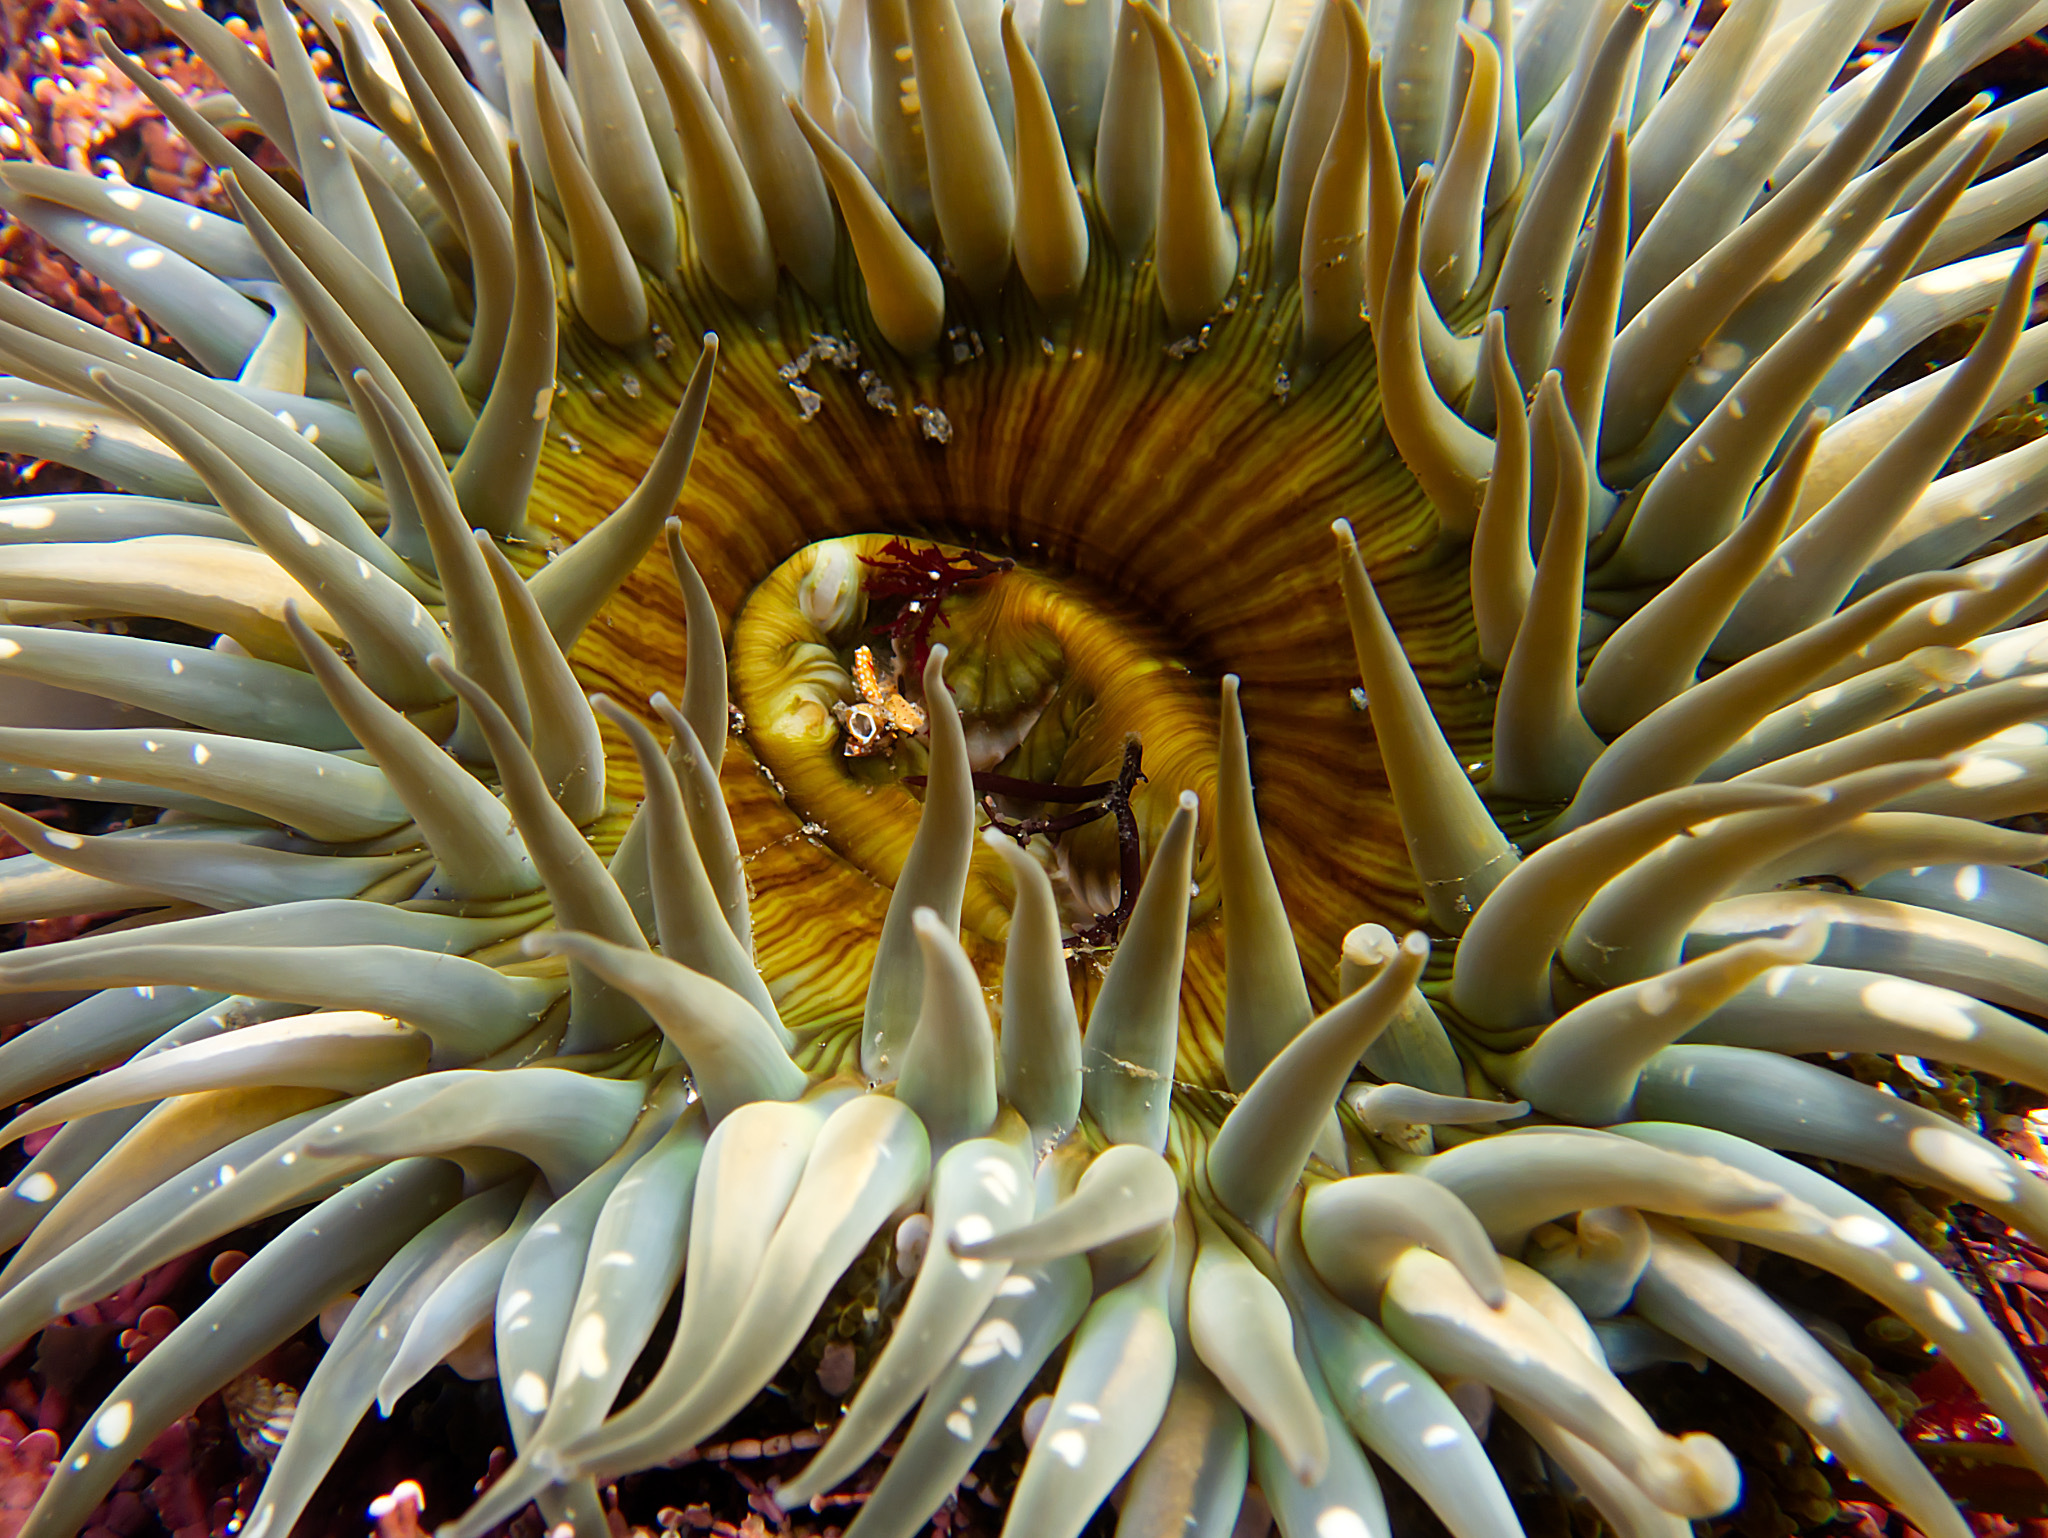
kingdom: Animalia
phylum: Cnidaria
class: Anthozoa
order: Actiniaria
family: Actiniidae
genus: Anthopleura
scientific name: Anthopleura sola
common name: Sun anemone
